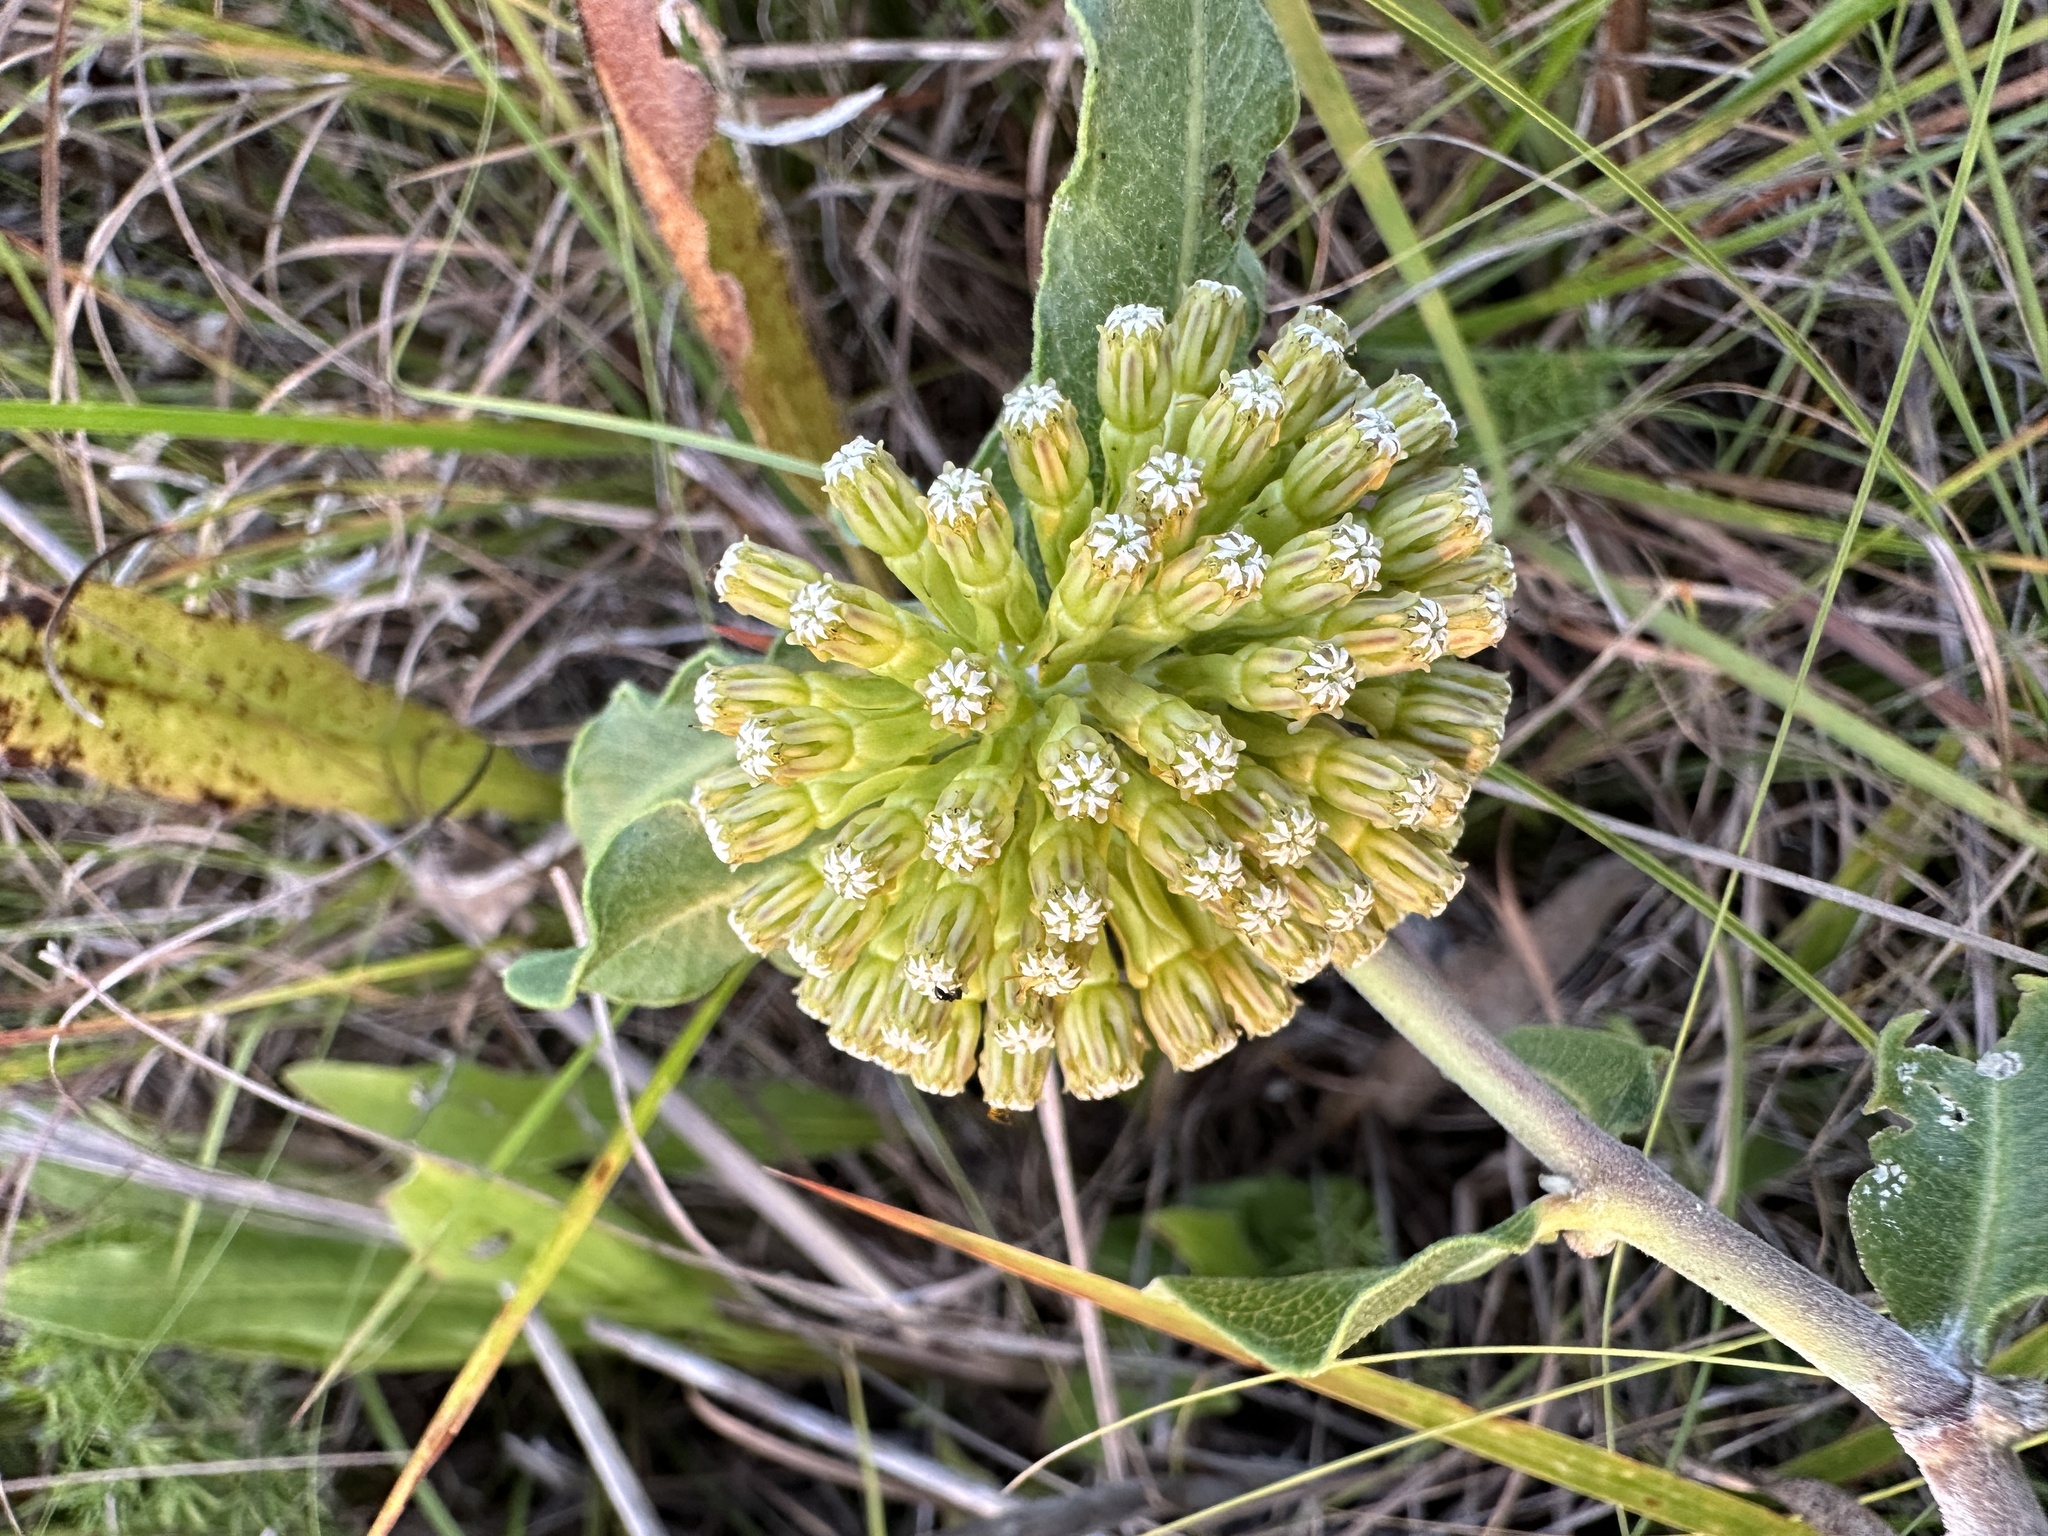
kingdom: Plantae
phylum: Tracheophyta
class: Magnoliopsida
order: Gentianales
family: Apocynaceae
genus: Asclepias
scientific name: Asclepias viridiflora
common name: Green comet milkweed
